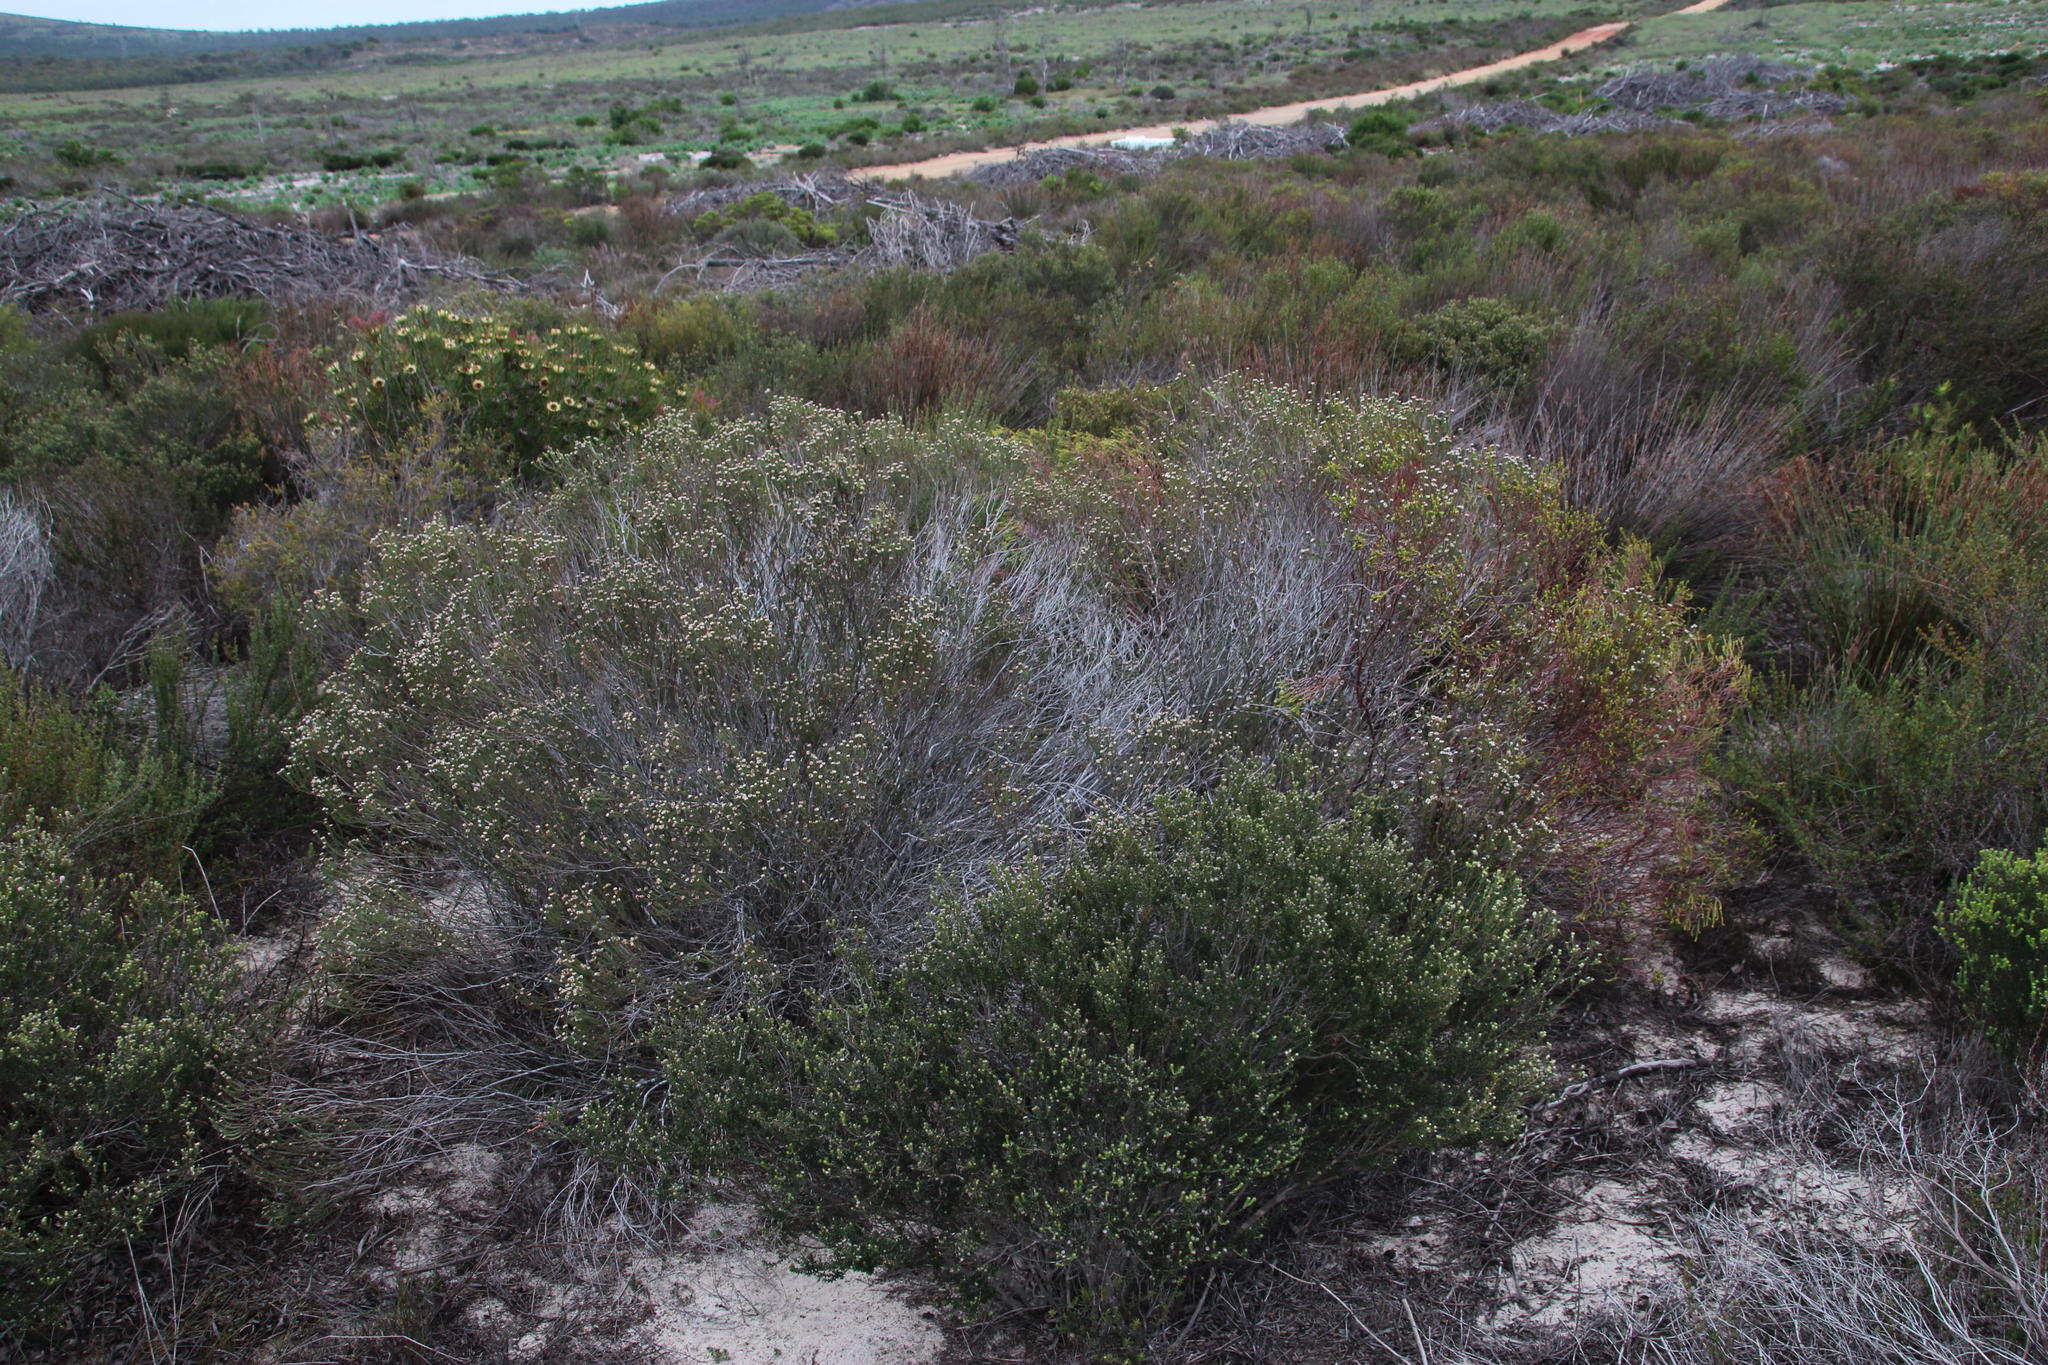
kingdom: Plantae
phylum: Tracheophyta
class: Magnoliopsida
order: Bruniales
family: Bruniaceae
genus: Staavia
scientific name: Staavia radiata
